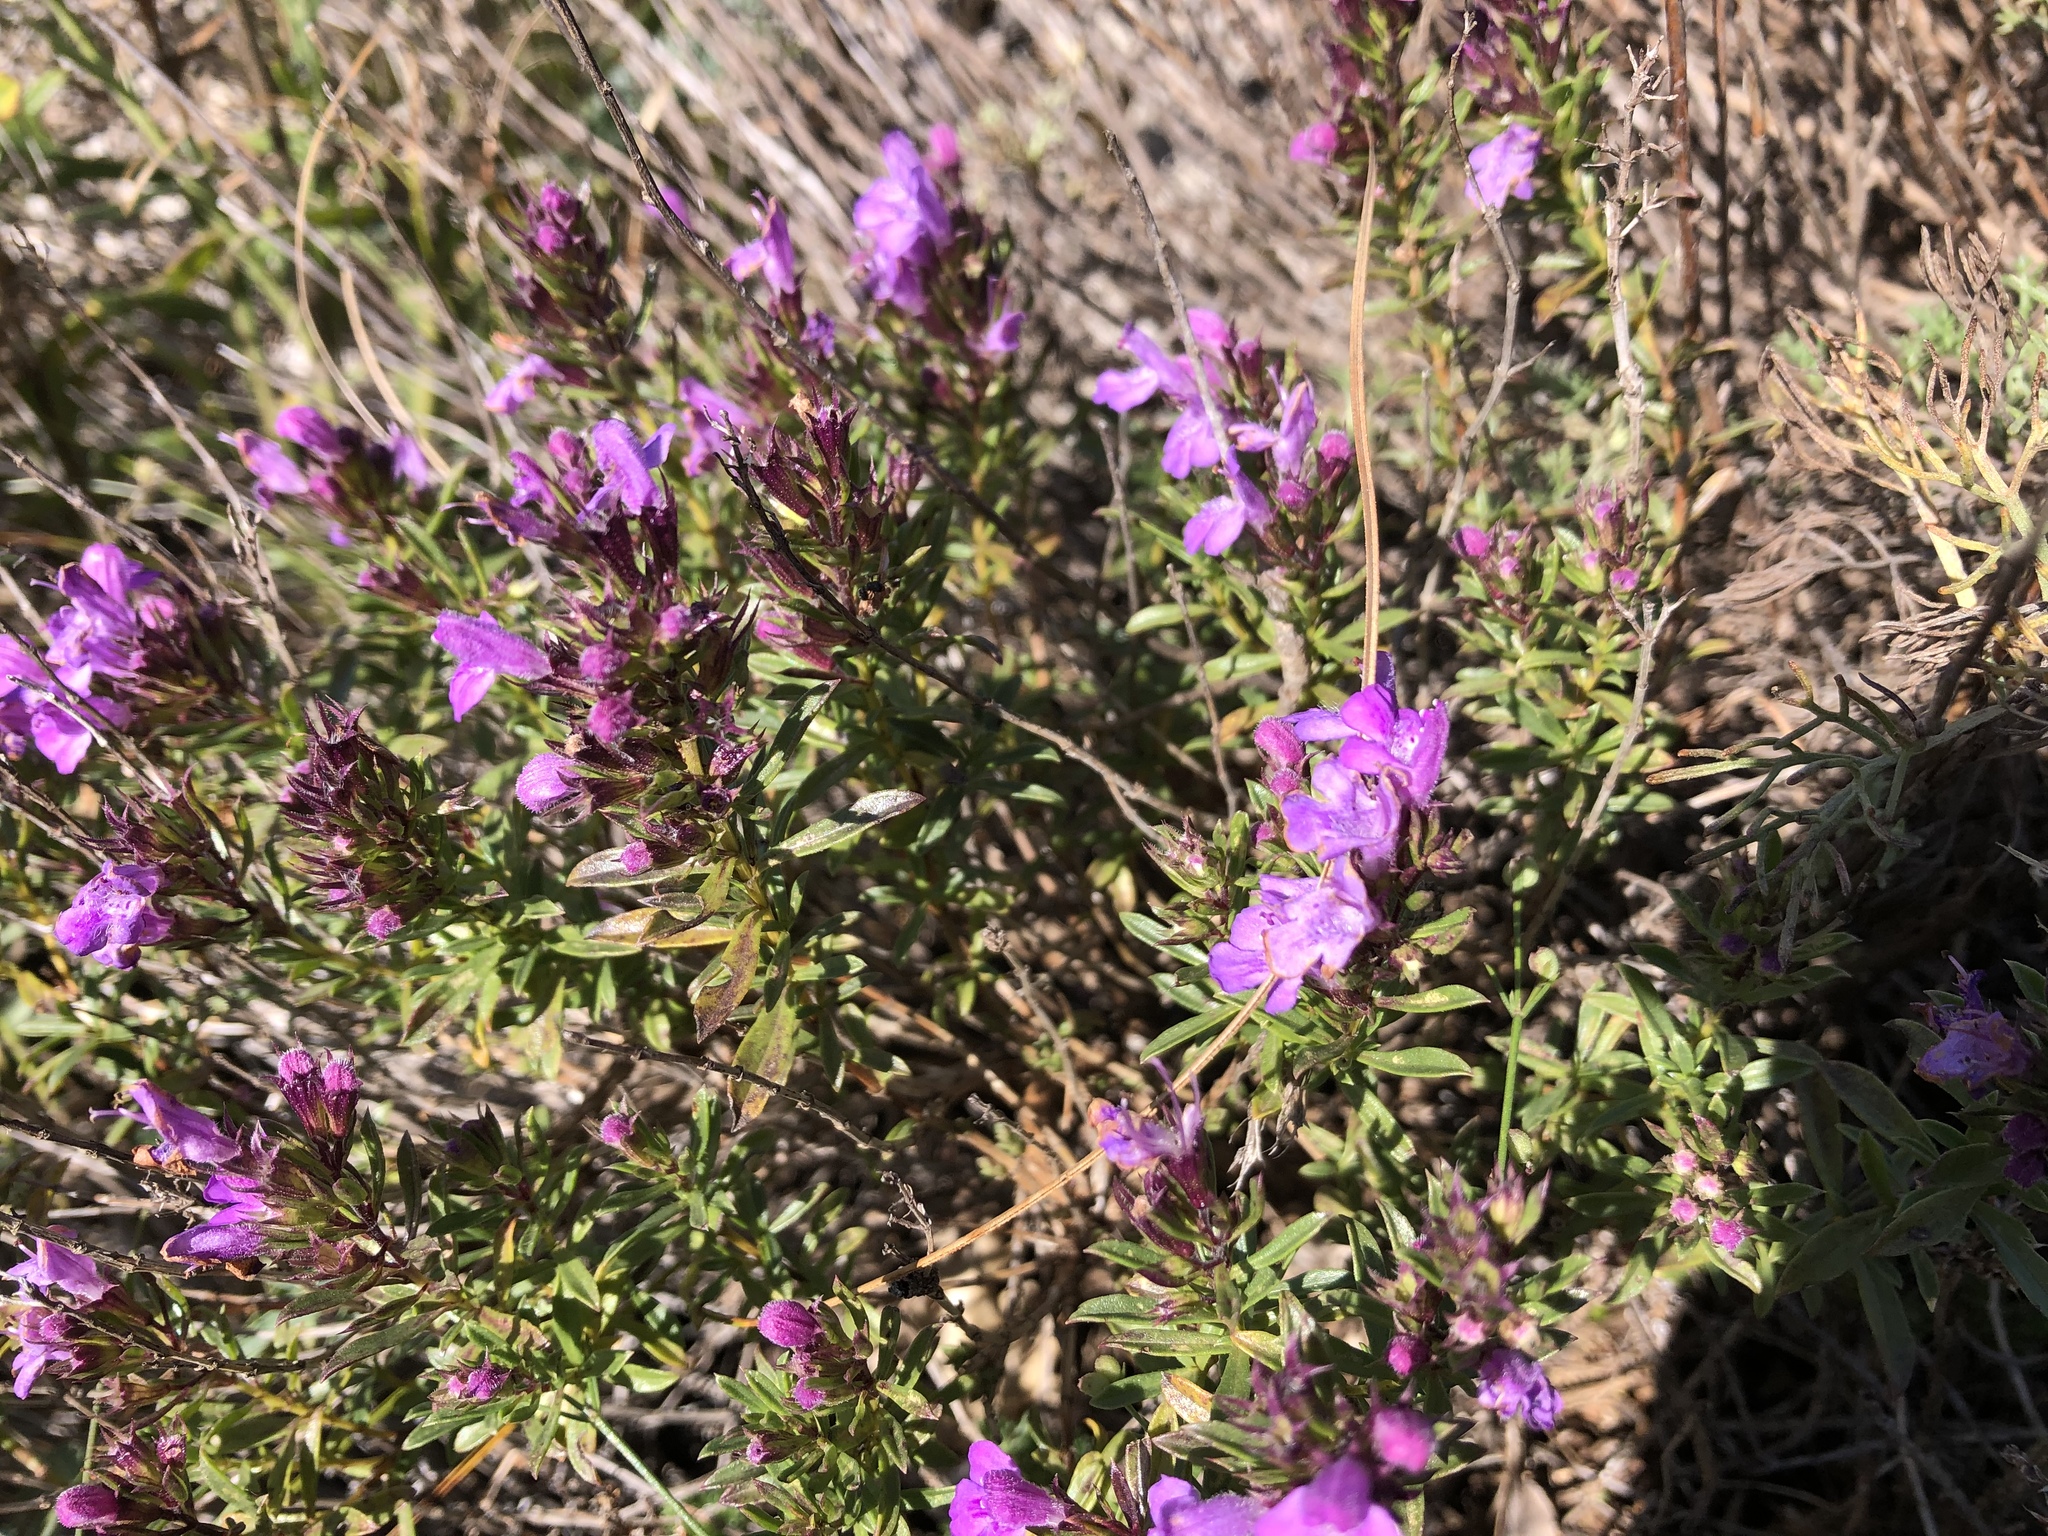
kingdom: Plantae
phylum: Tracheophyta
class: Magnoliopsida
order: Lamiales
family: Lamiaceae
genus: Satureja
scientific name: Satureja subspicata
